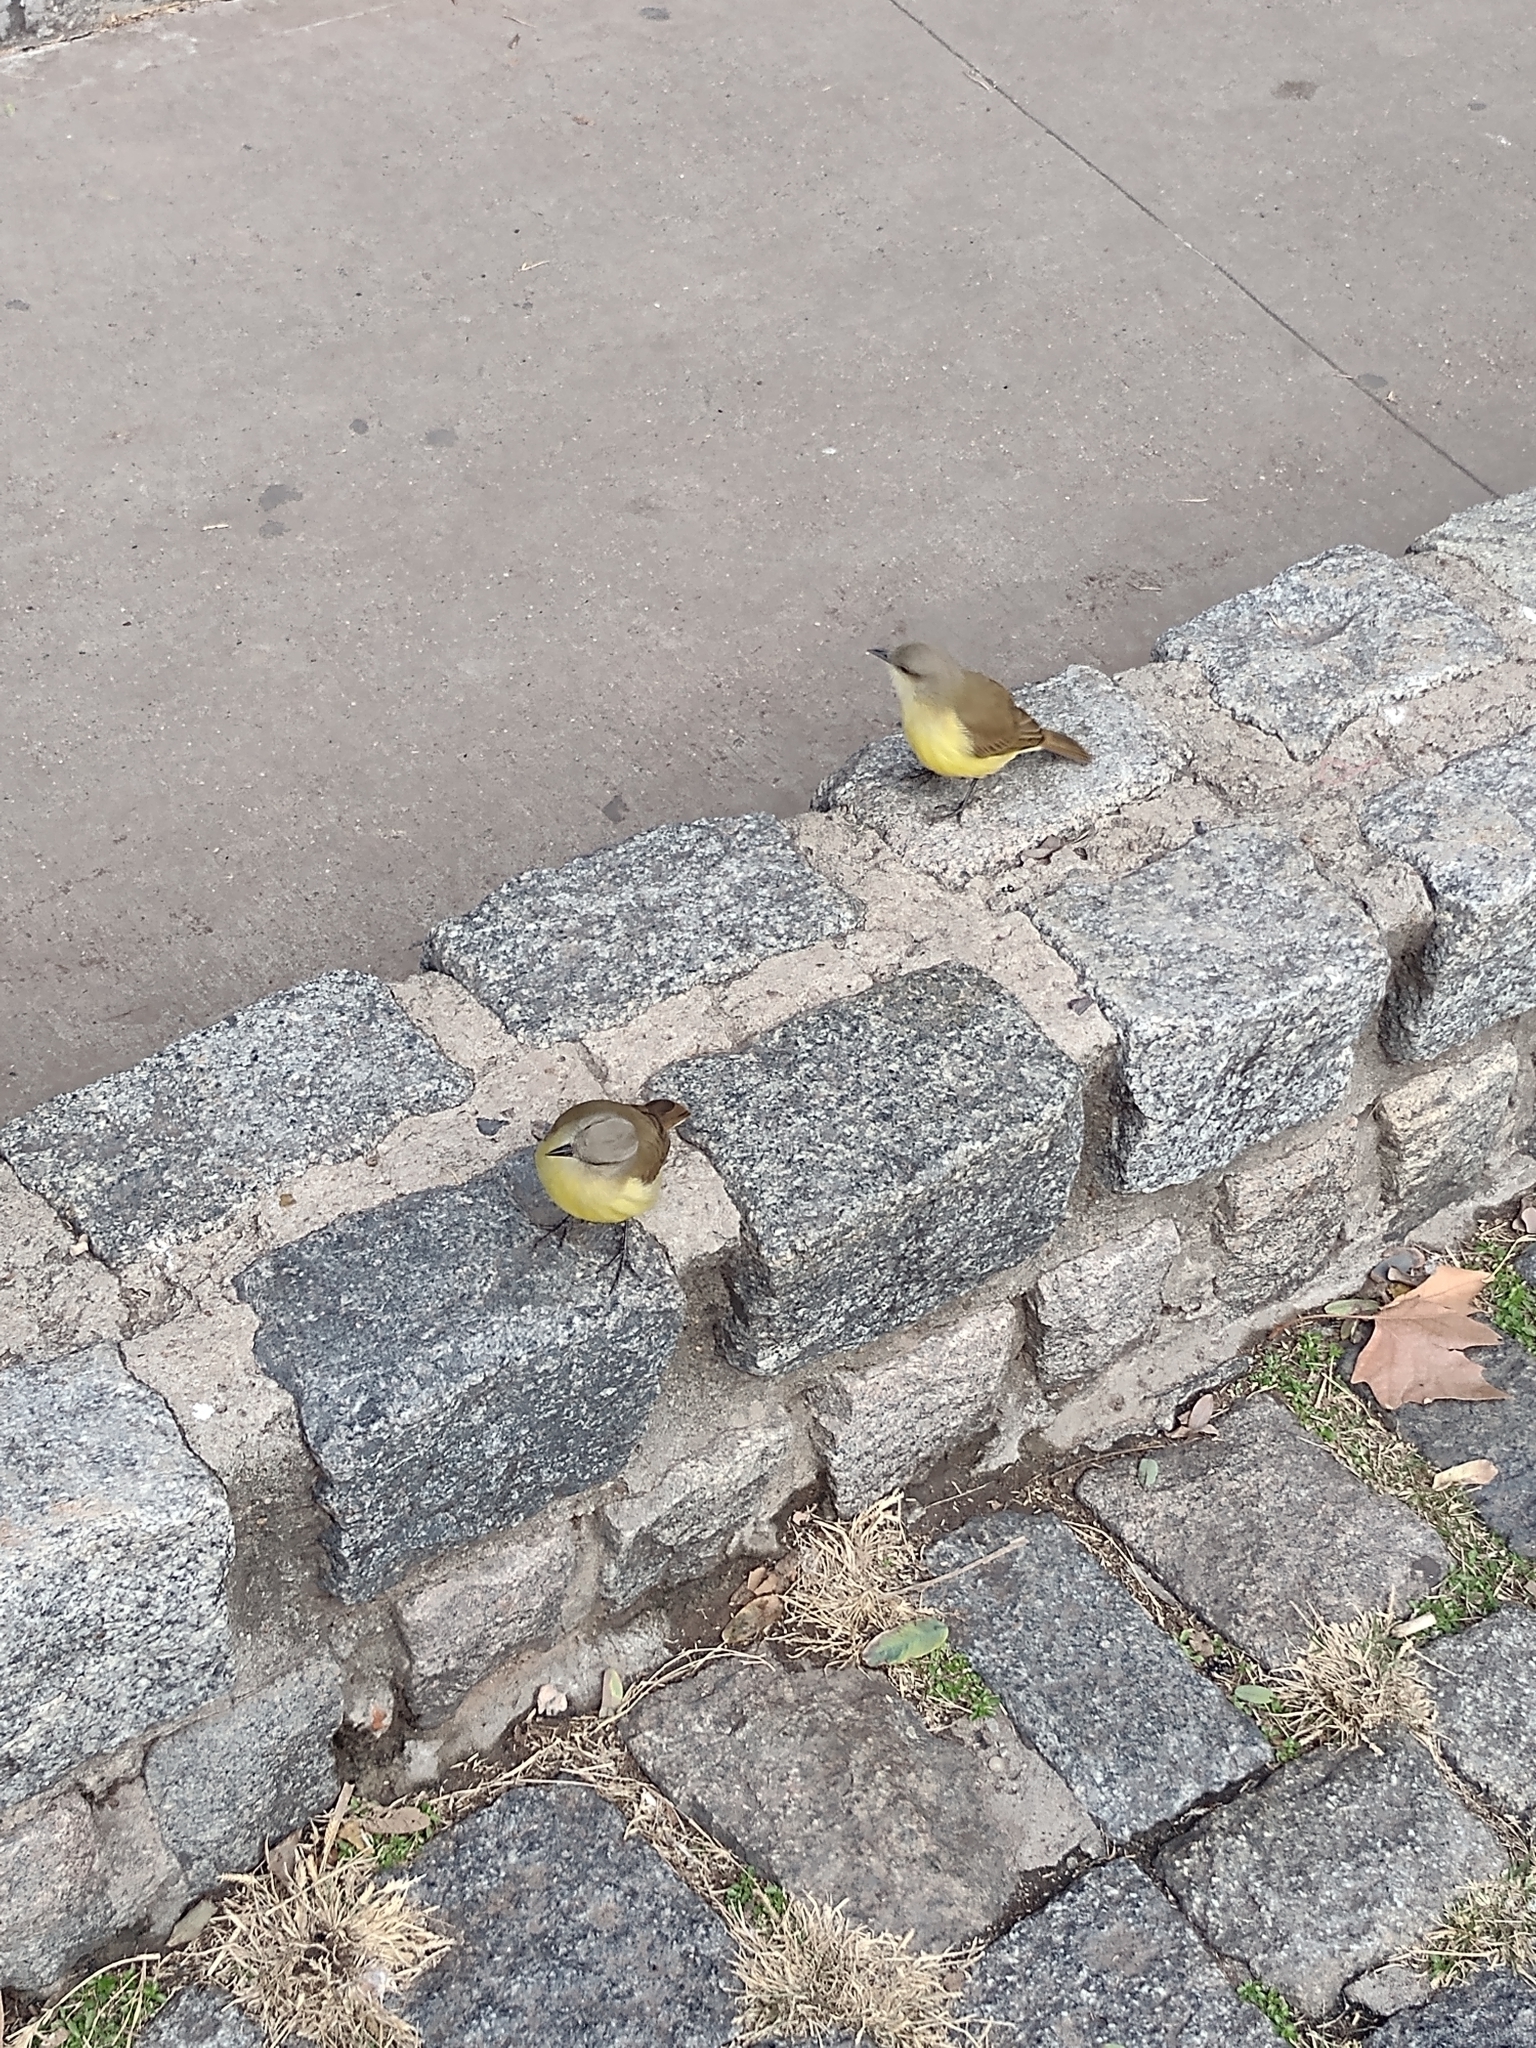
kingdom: Animalia
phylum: Chordata
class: Aves
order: Passeriformes
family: Tyrannidae
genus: Machetornis
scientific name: Machetornis rixosa
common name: Cattle tyrant
